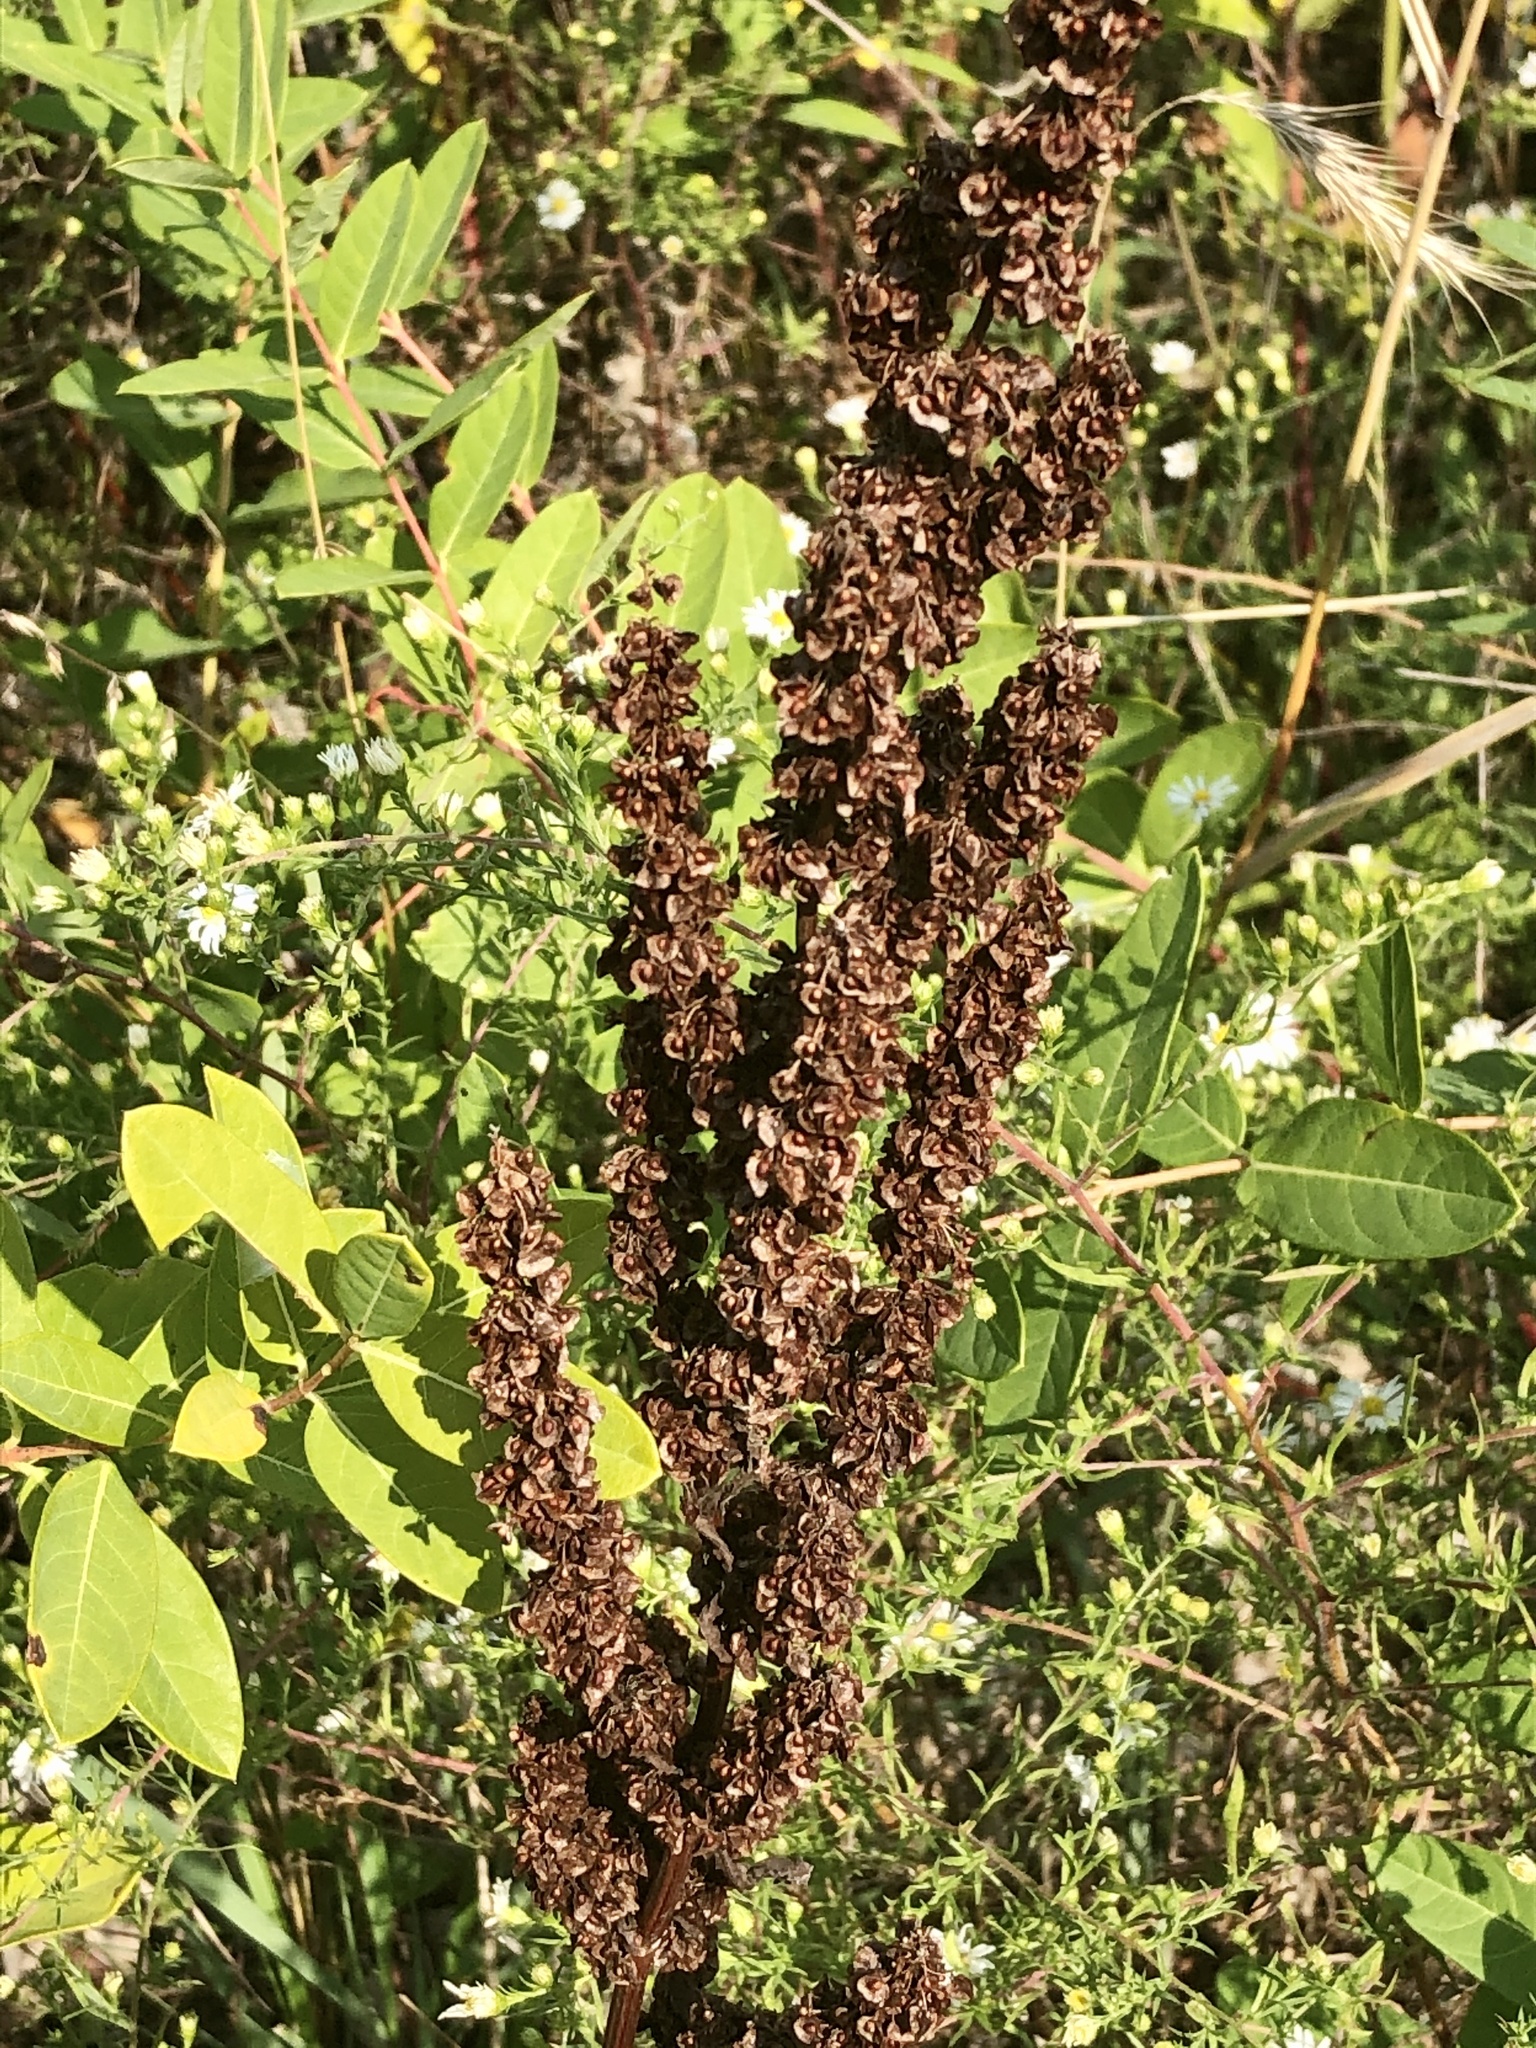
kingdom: Plantae
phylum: Tracheophyta
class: Magnoliopsida
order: Caryophyllales
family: Polygonaceae
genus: Rumex
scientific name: Rumex crispus
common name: Curled dock
